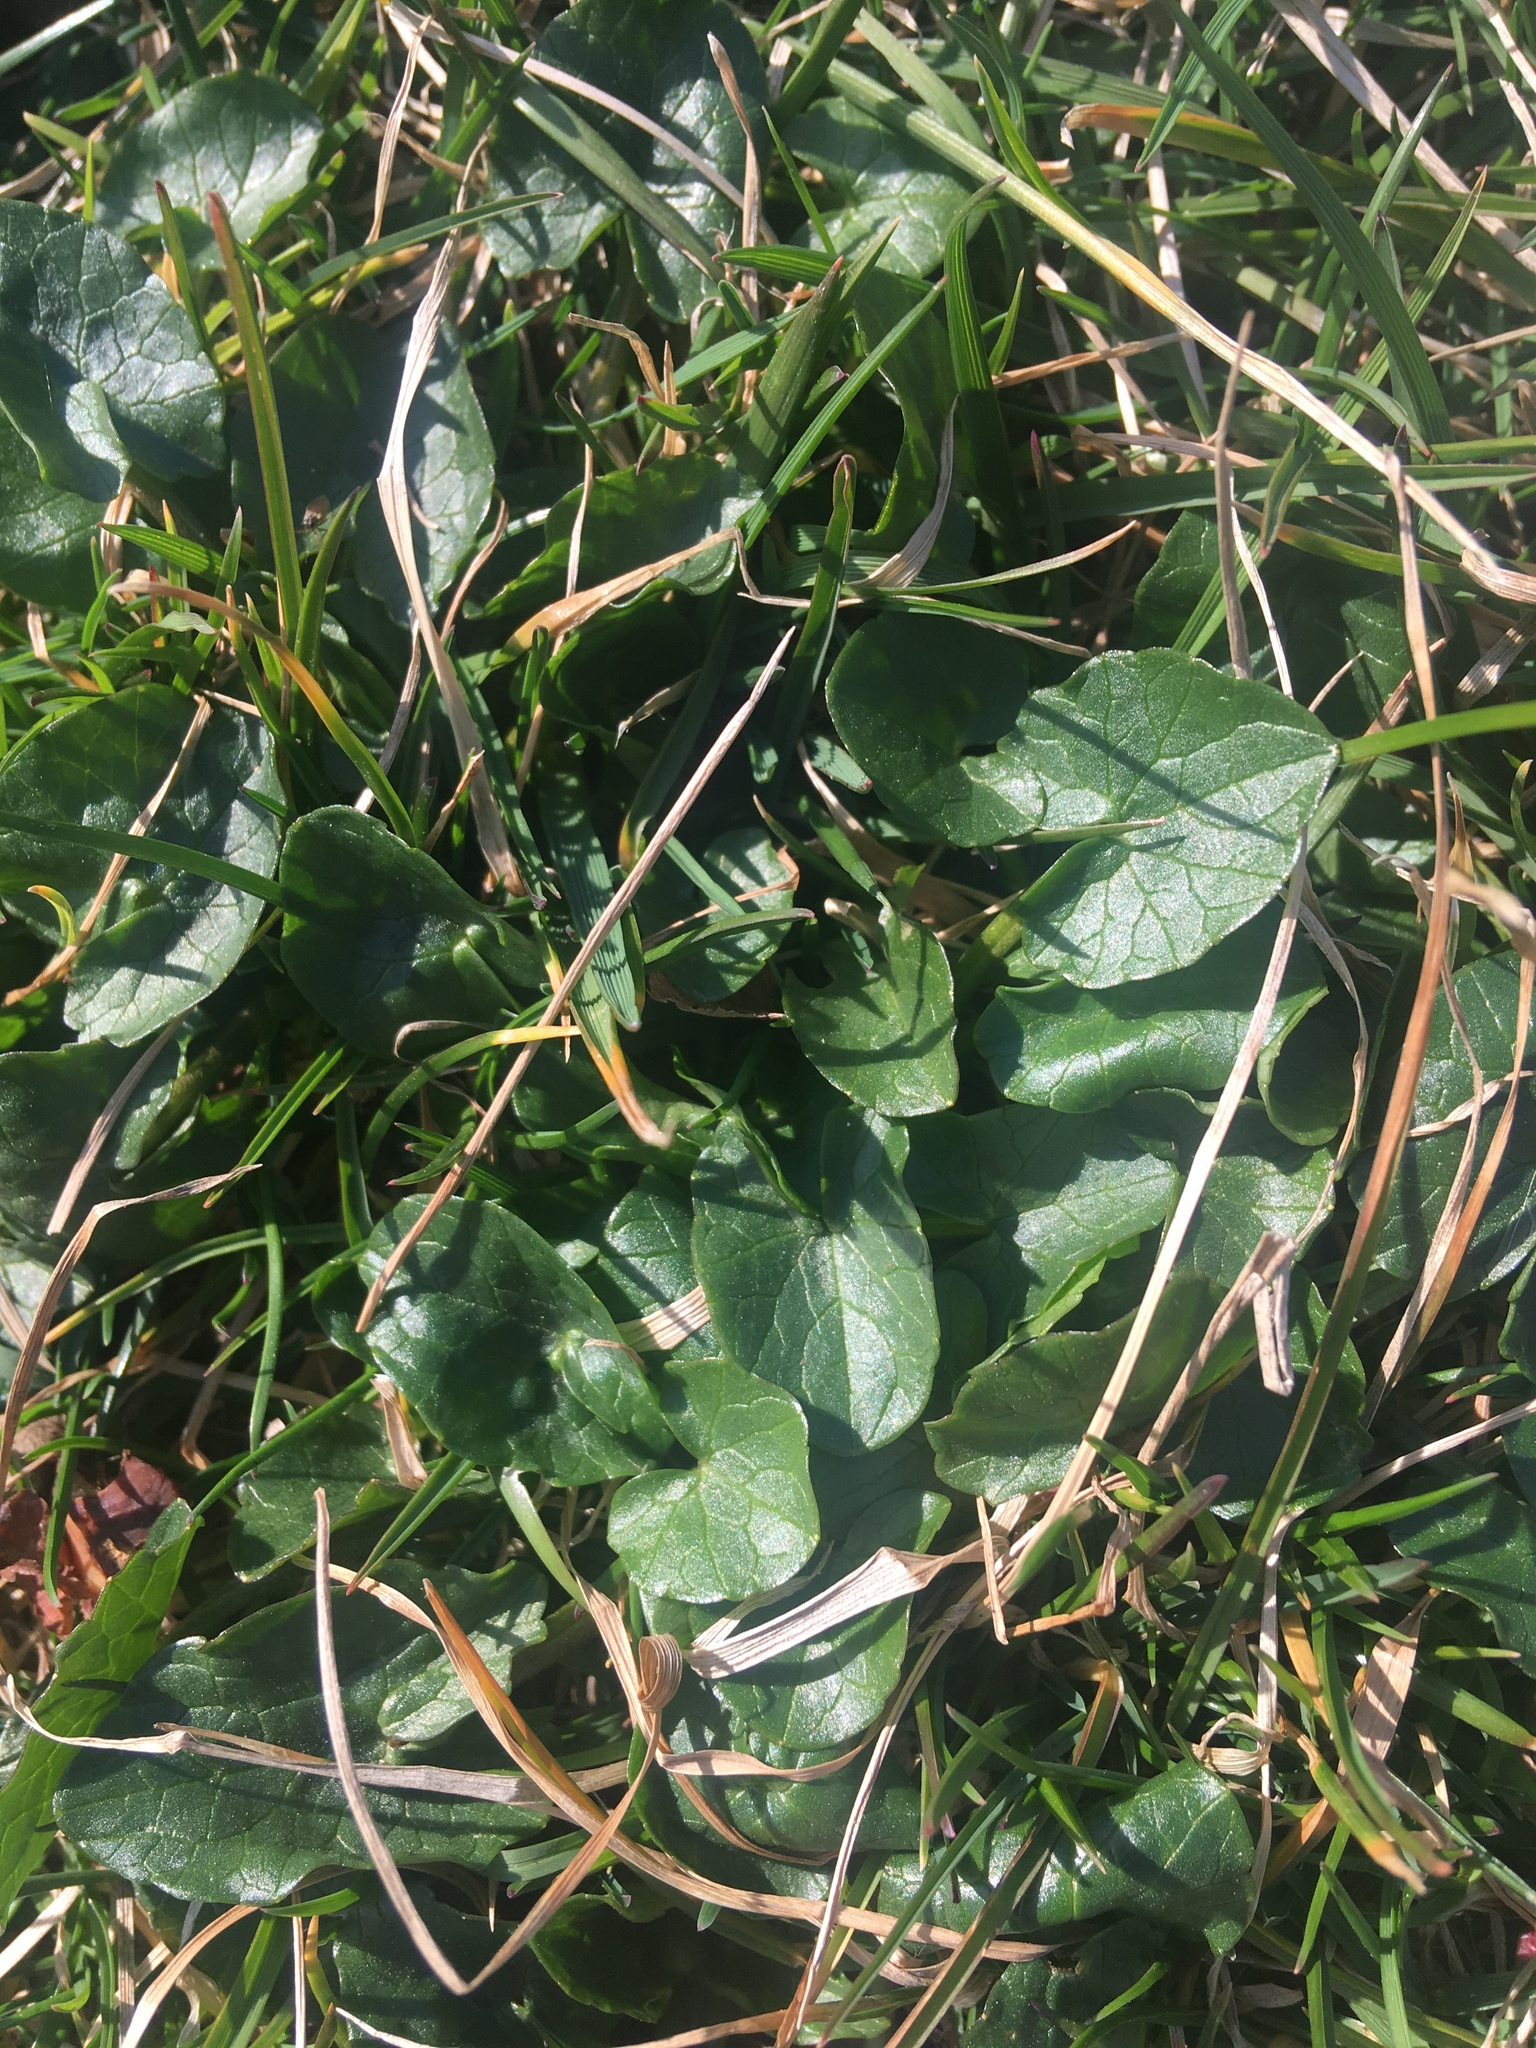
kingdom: Plantae
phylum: Tracheophyta
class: Magnoliopsida
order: Ranunculales
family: Ranunculaceae
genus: Ficaria
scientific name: Ficaria verna
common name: Lesser celandine
